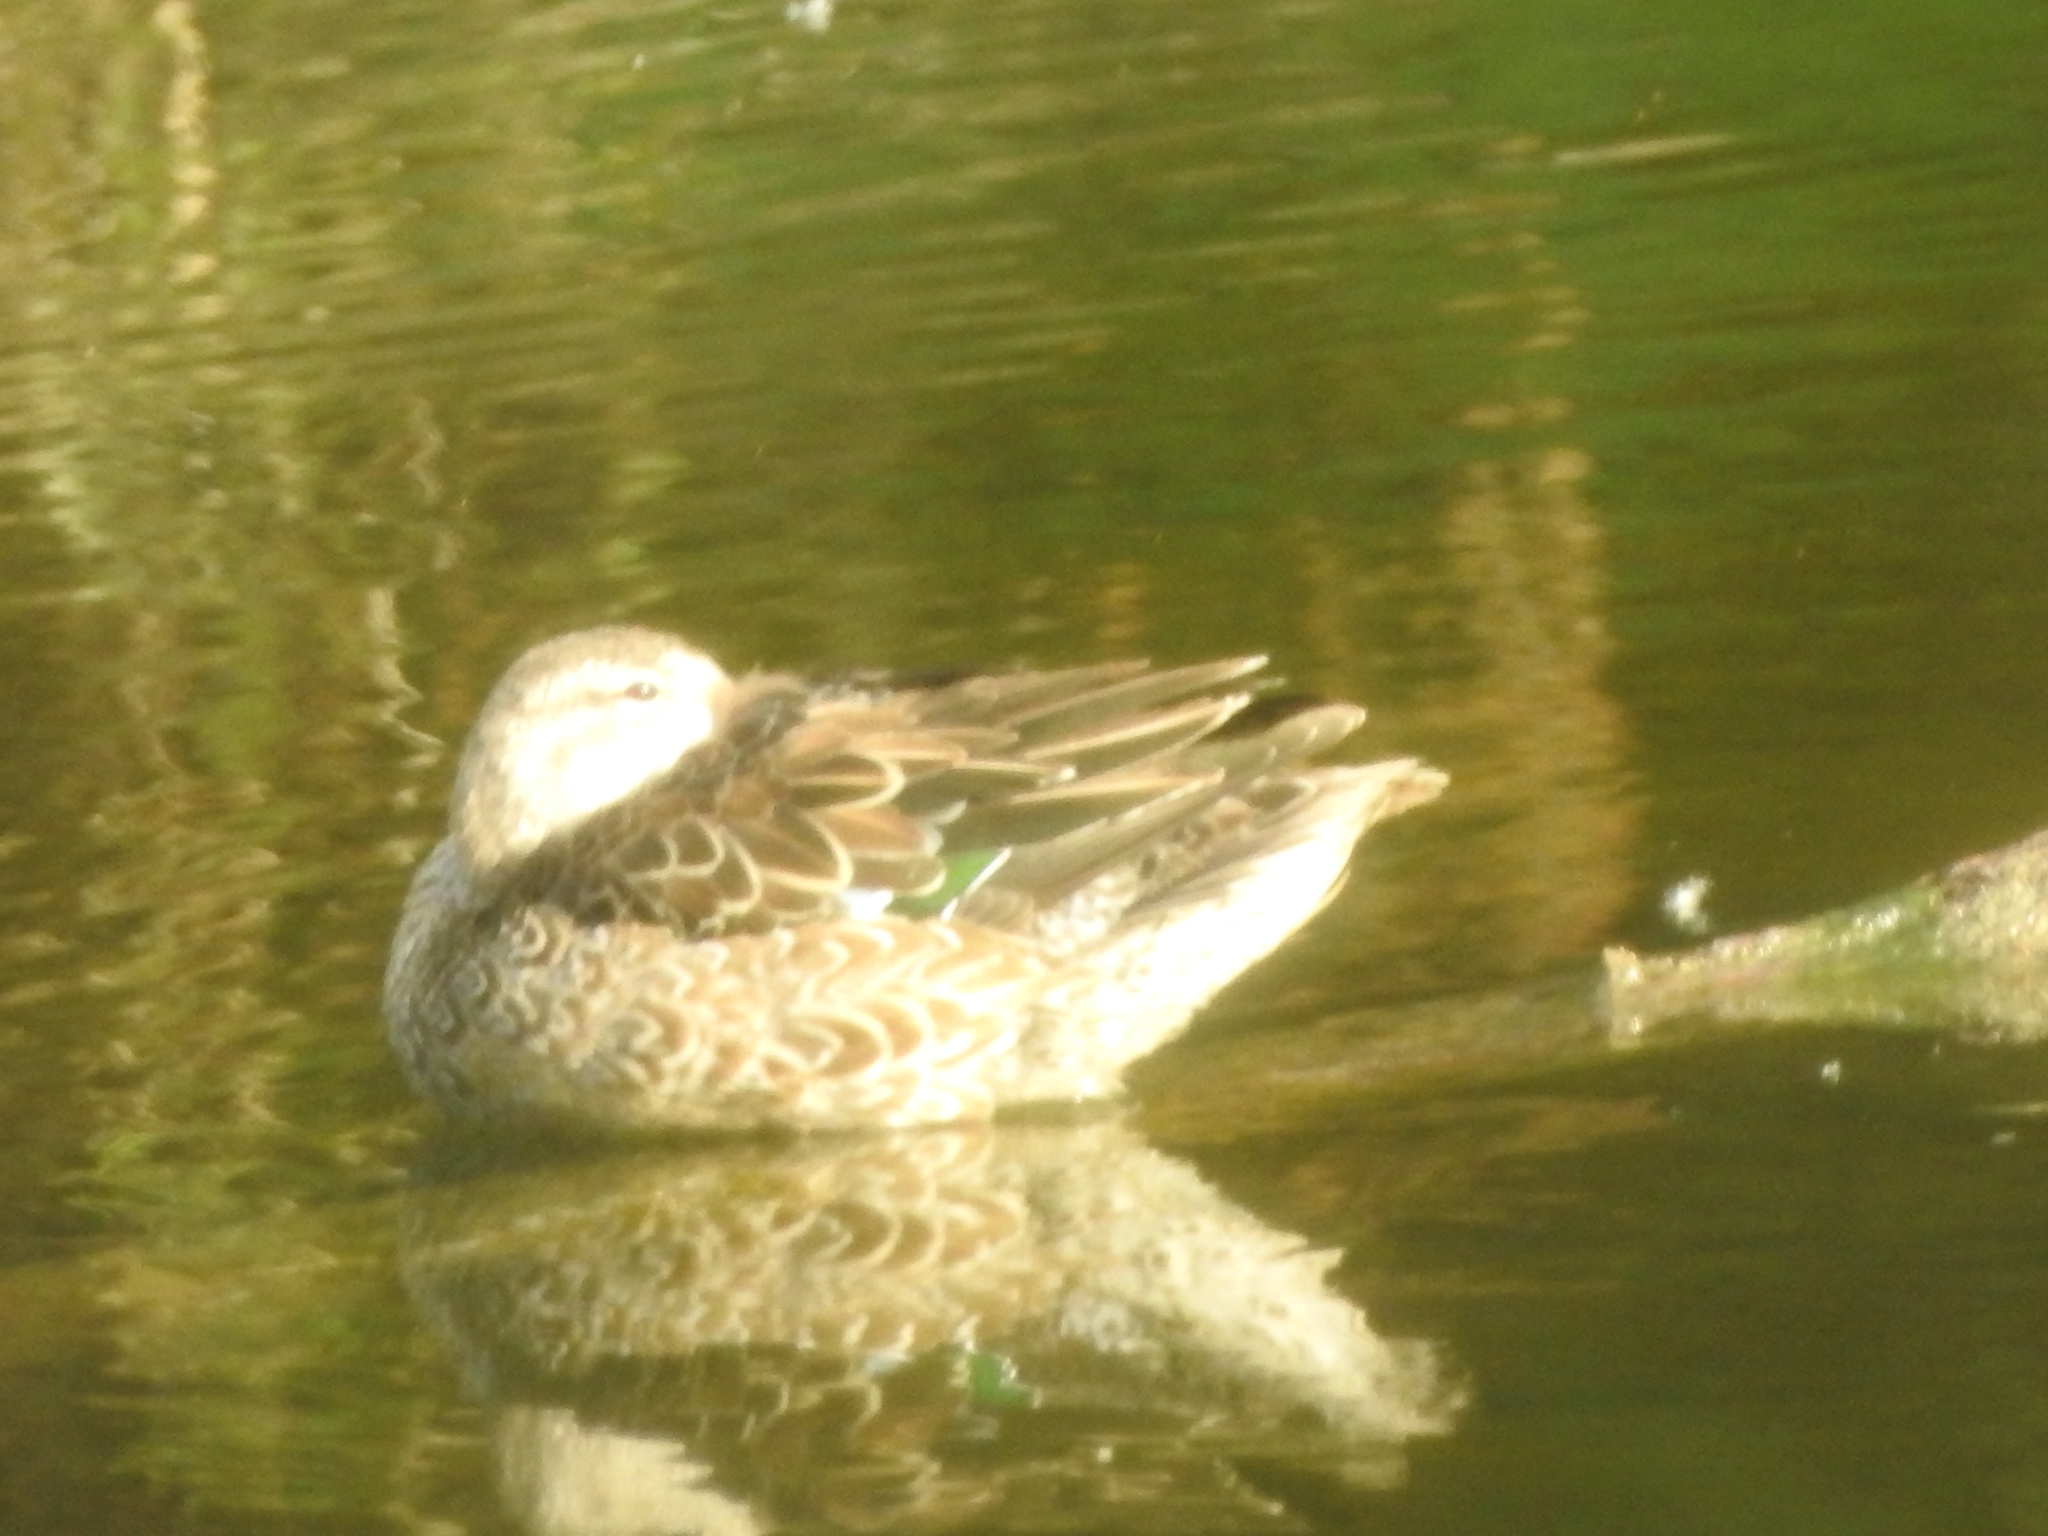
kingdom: Animalia
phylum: Chordata
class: Aves
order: Anseriformes
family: Anatidae
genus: Spatula
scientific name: Spatula discors
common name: Blue-winged teal
